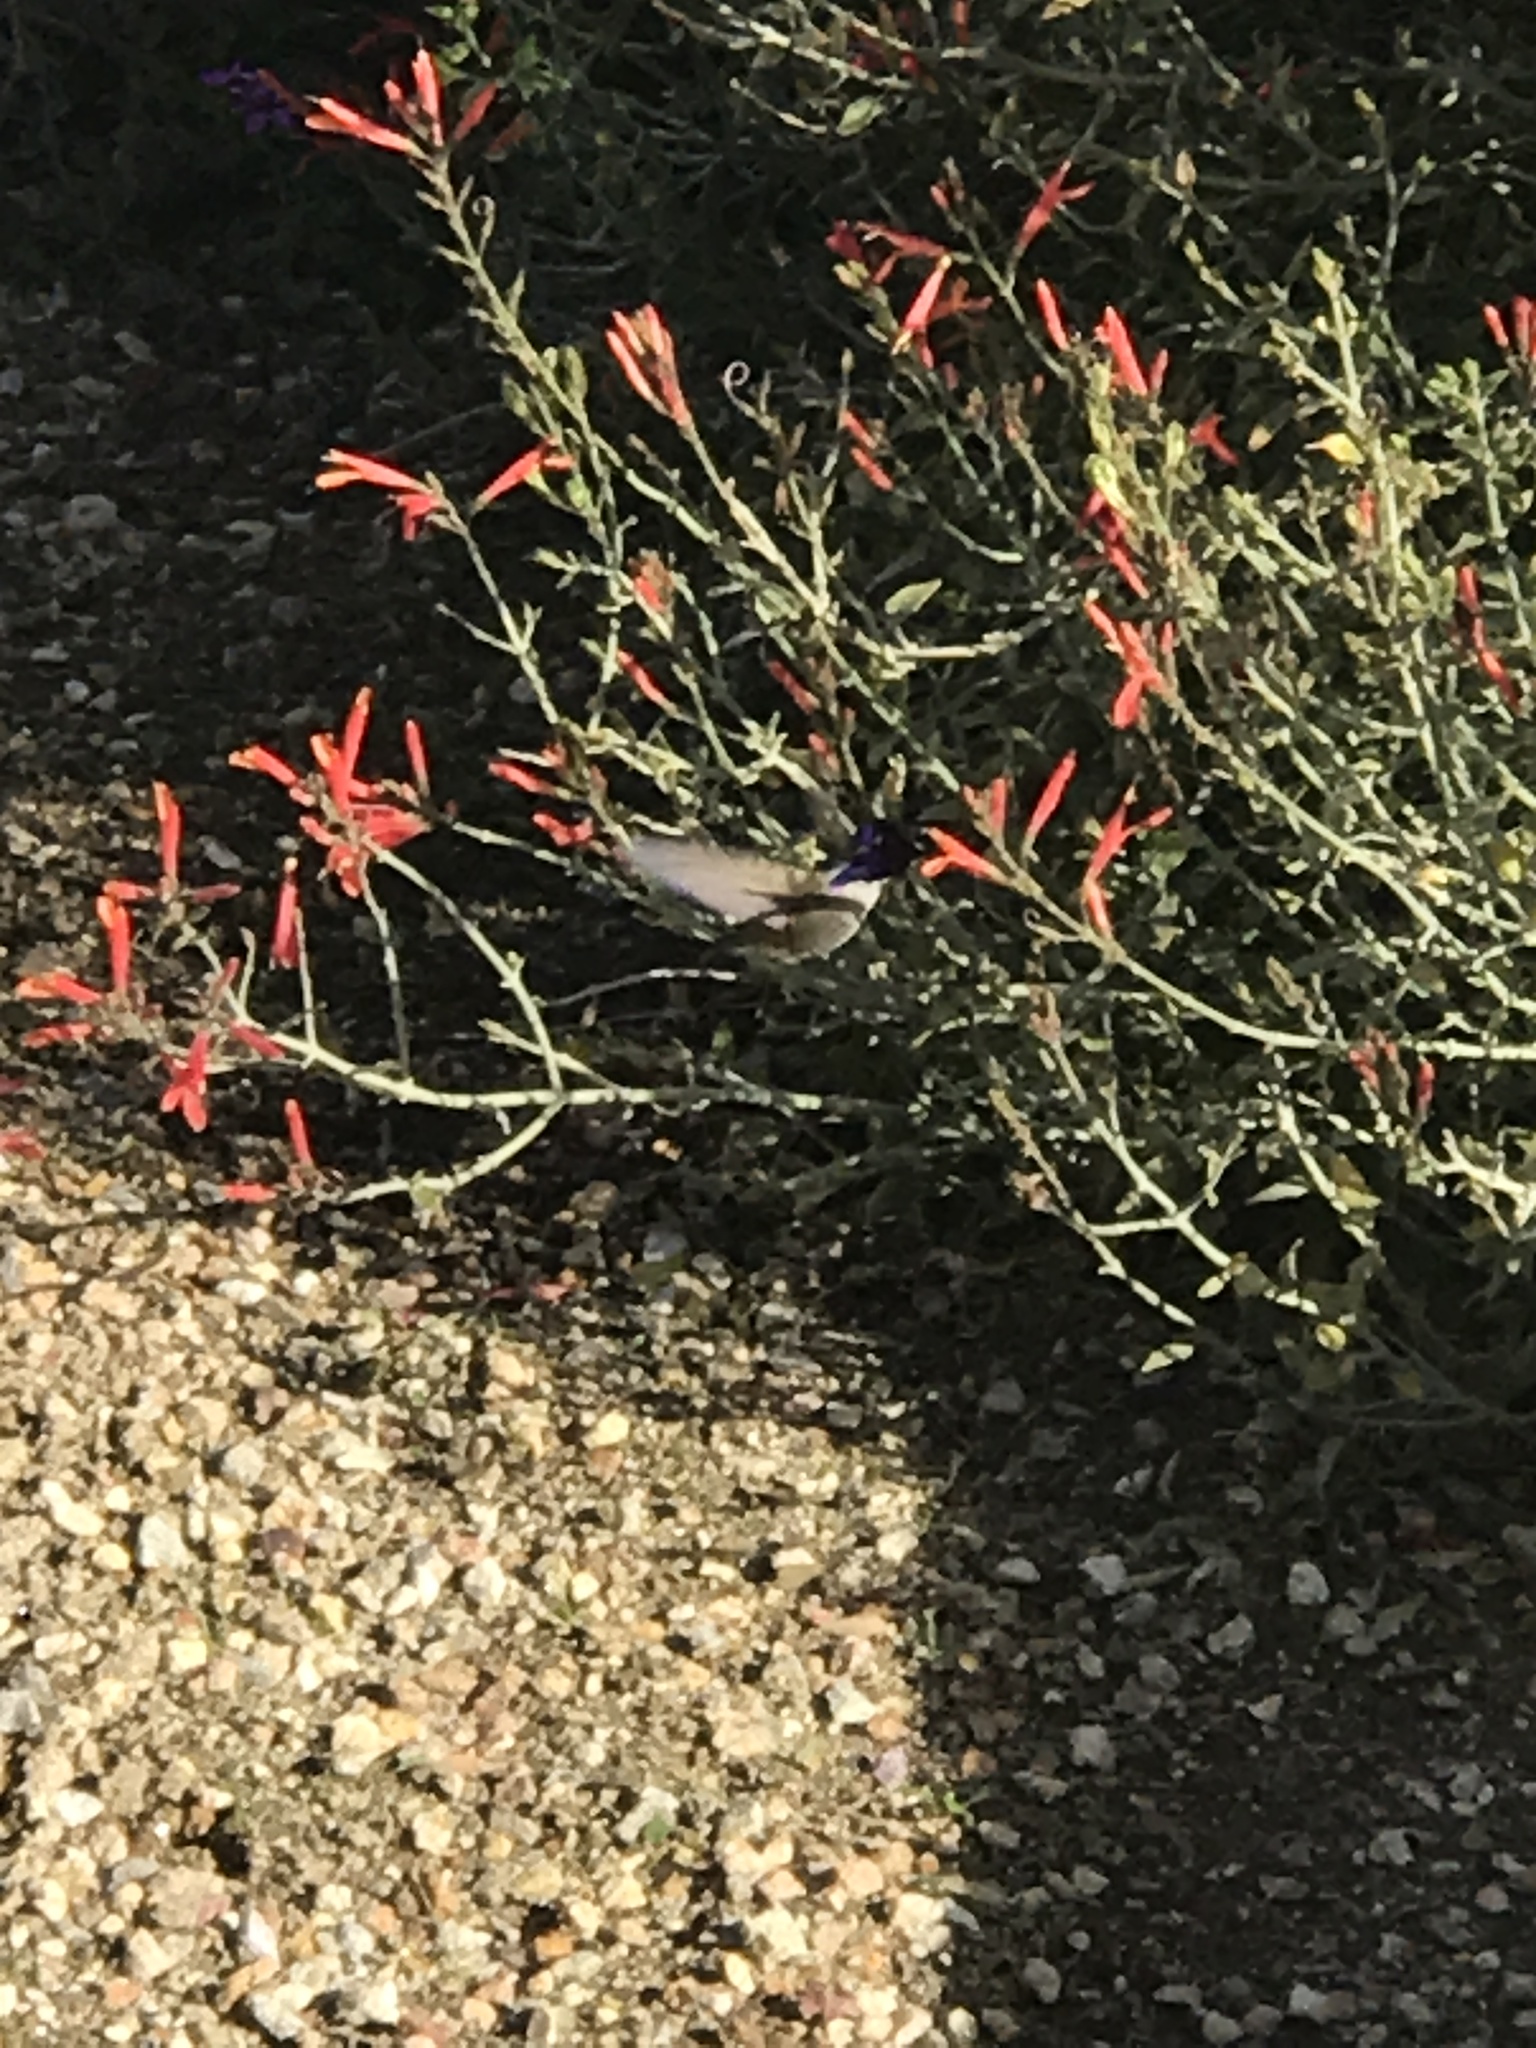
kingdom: Animalia
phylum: Chordata
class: Aves
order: Apodiformes
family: Trochilidae
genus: Calypte
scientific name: Calypte costae
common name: Costa's hummingbird
